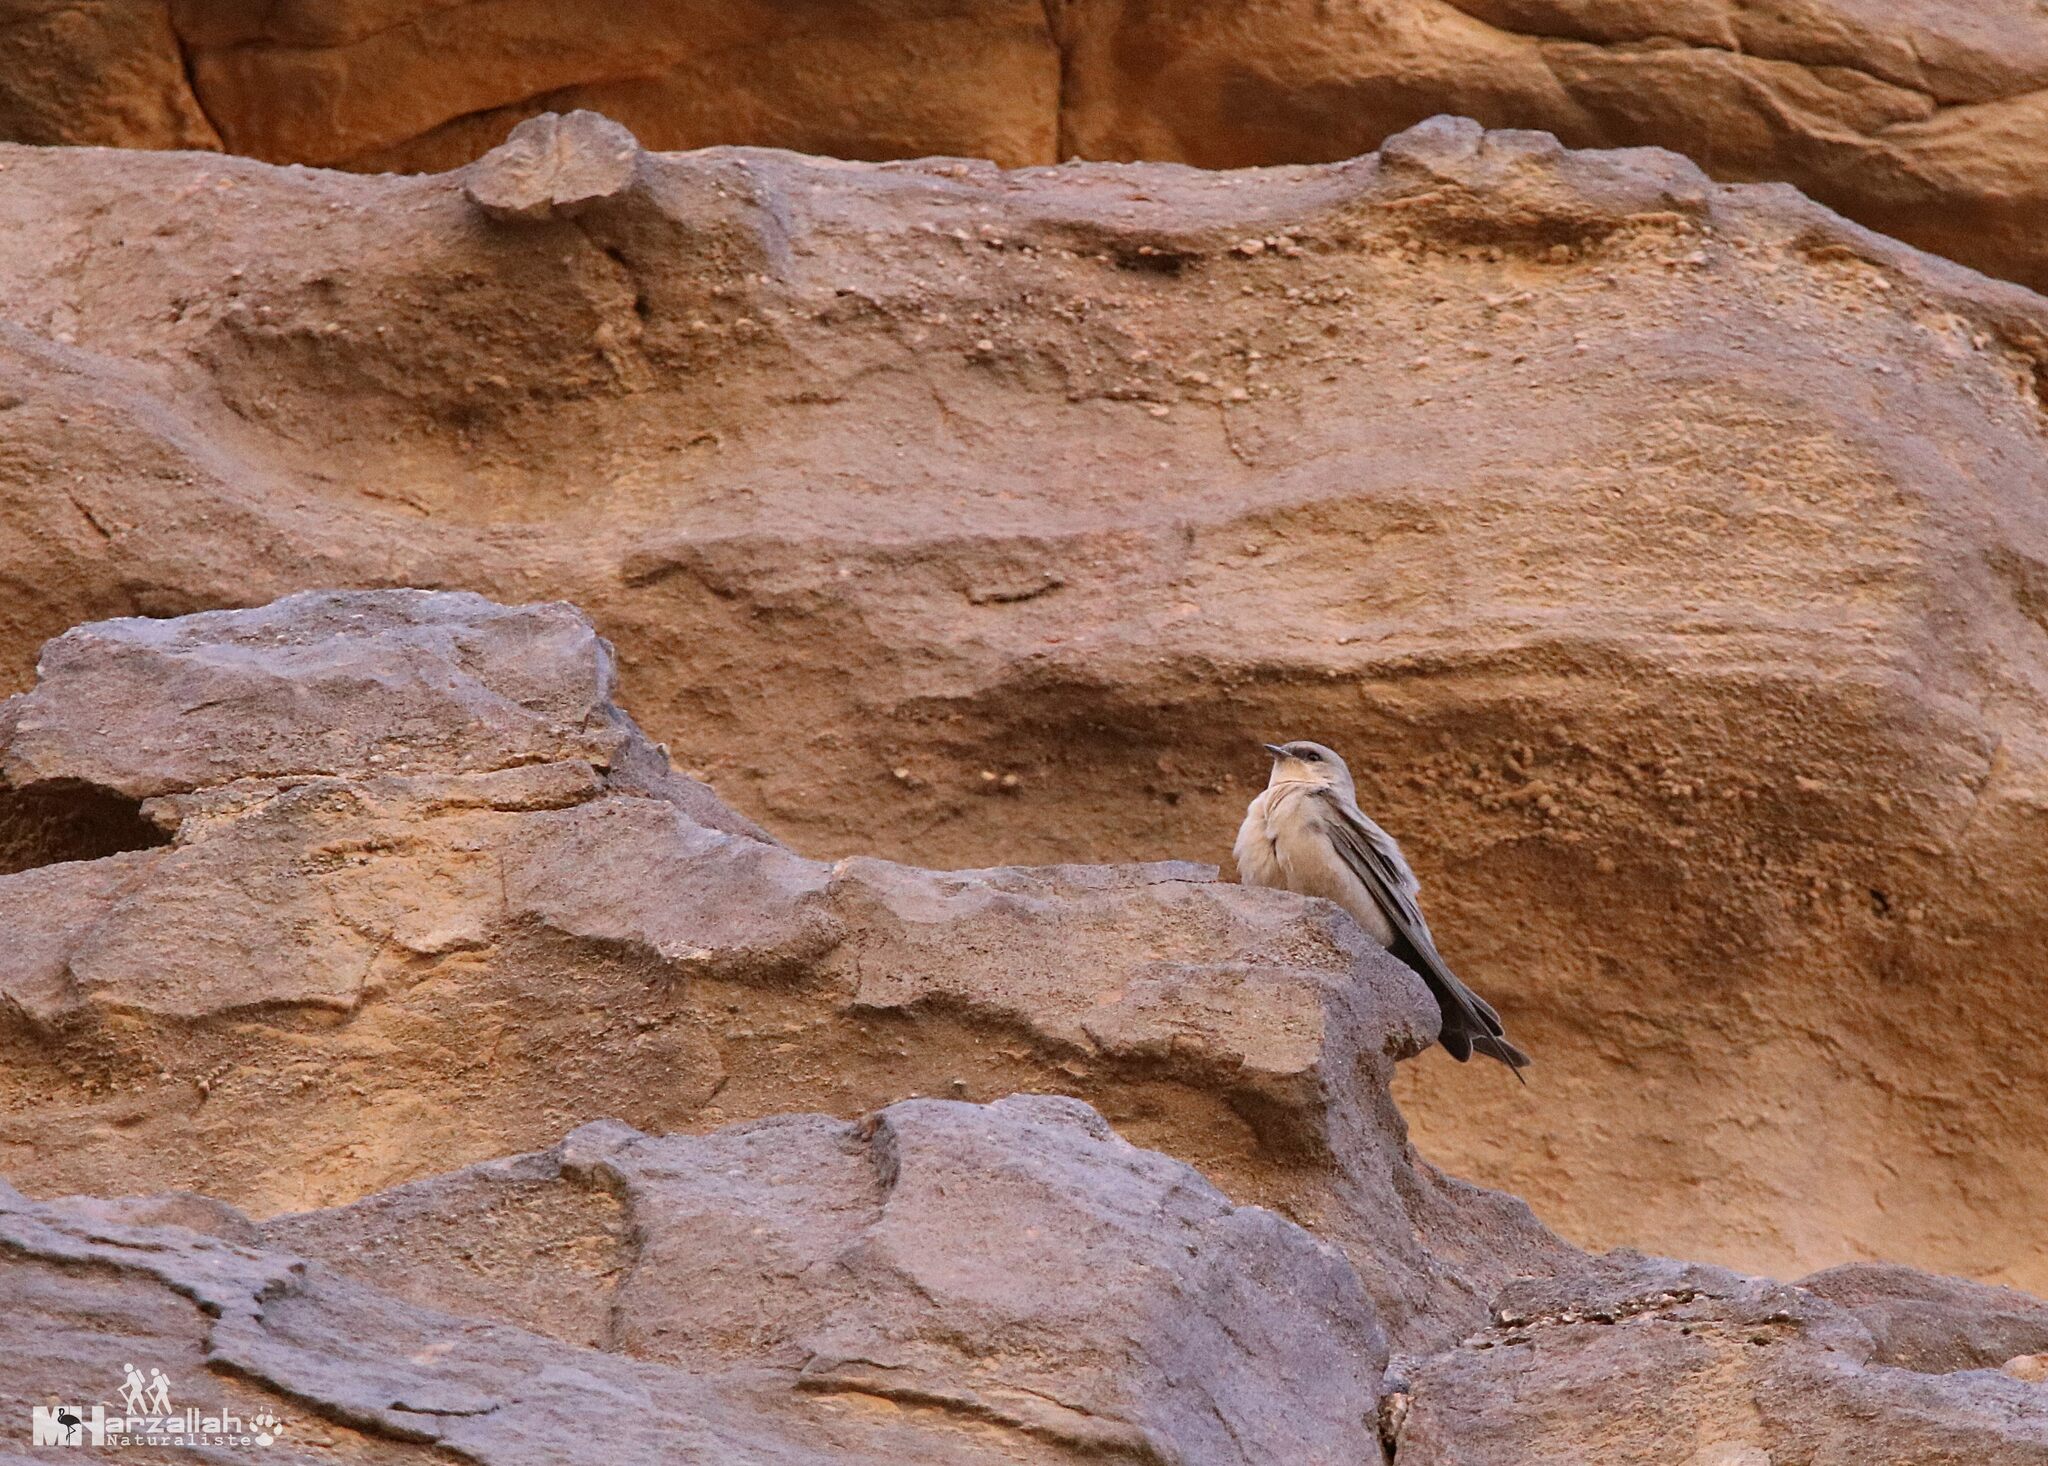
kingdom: Animalia
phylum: Chordata
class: Aves
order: Passeriformes
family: Hirundinidae
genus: Ptyonoprogne
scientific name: Ptyonoprogne fuligula
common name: Rock martin
